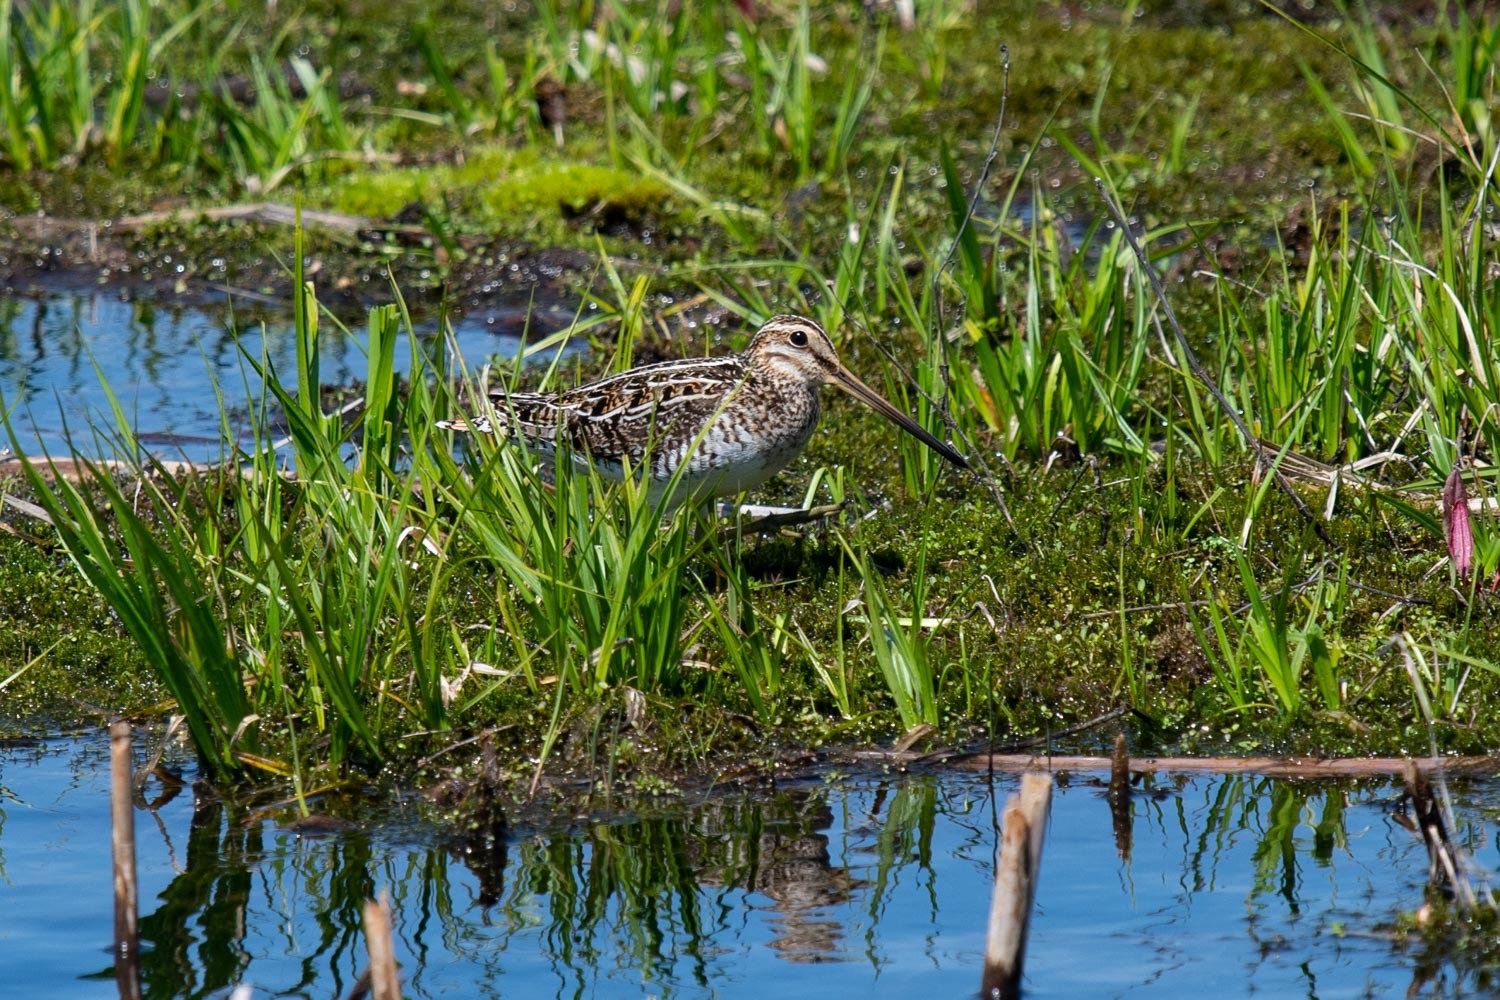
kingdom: Animalia
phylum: Chordata
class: Aves
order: Charadriiformes
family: Scolopacidae
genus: Gallinago
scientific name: Gallinago delicata
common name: Wilson's snipe
